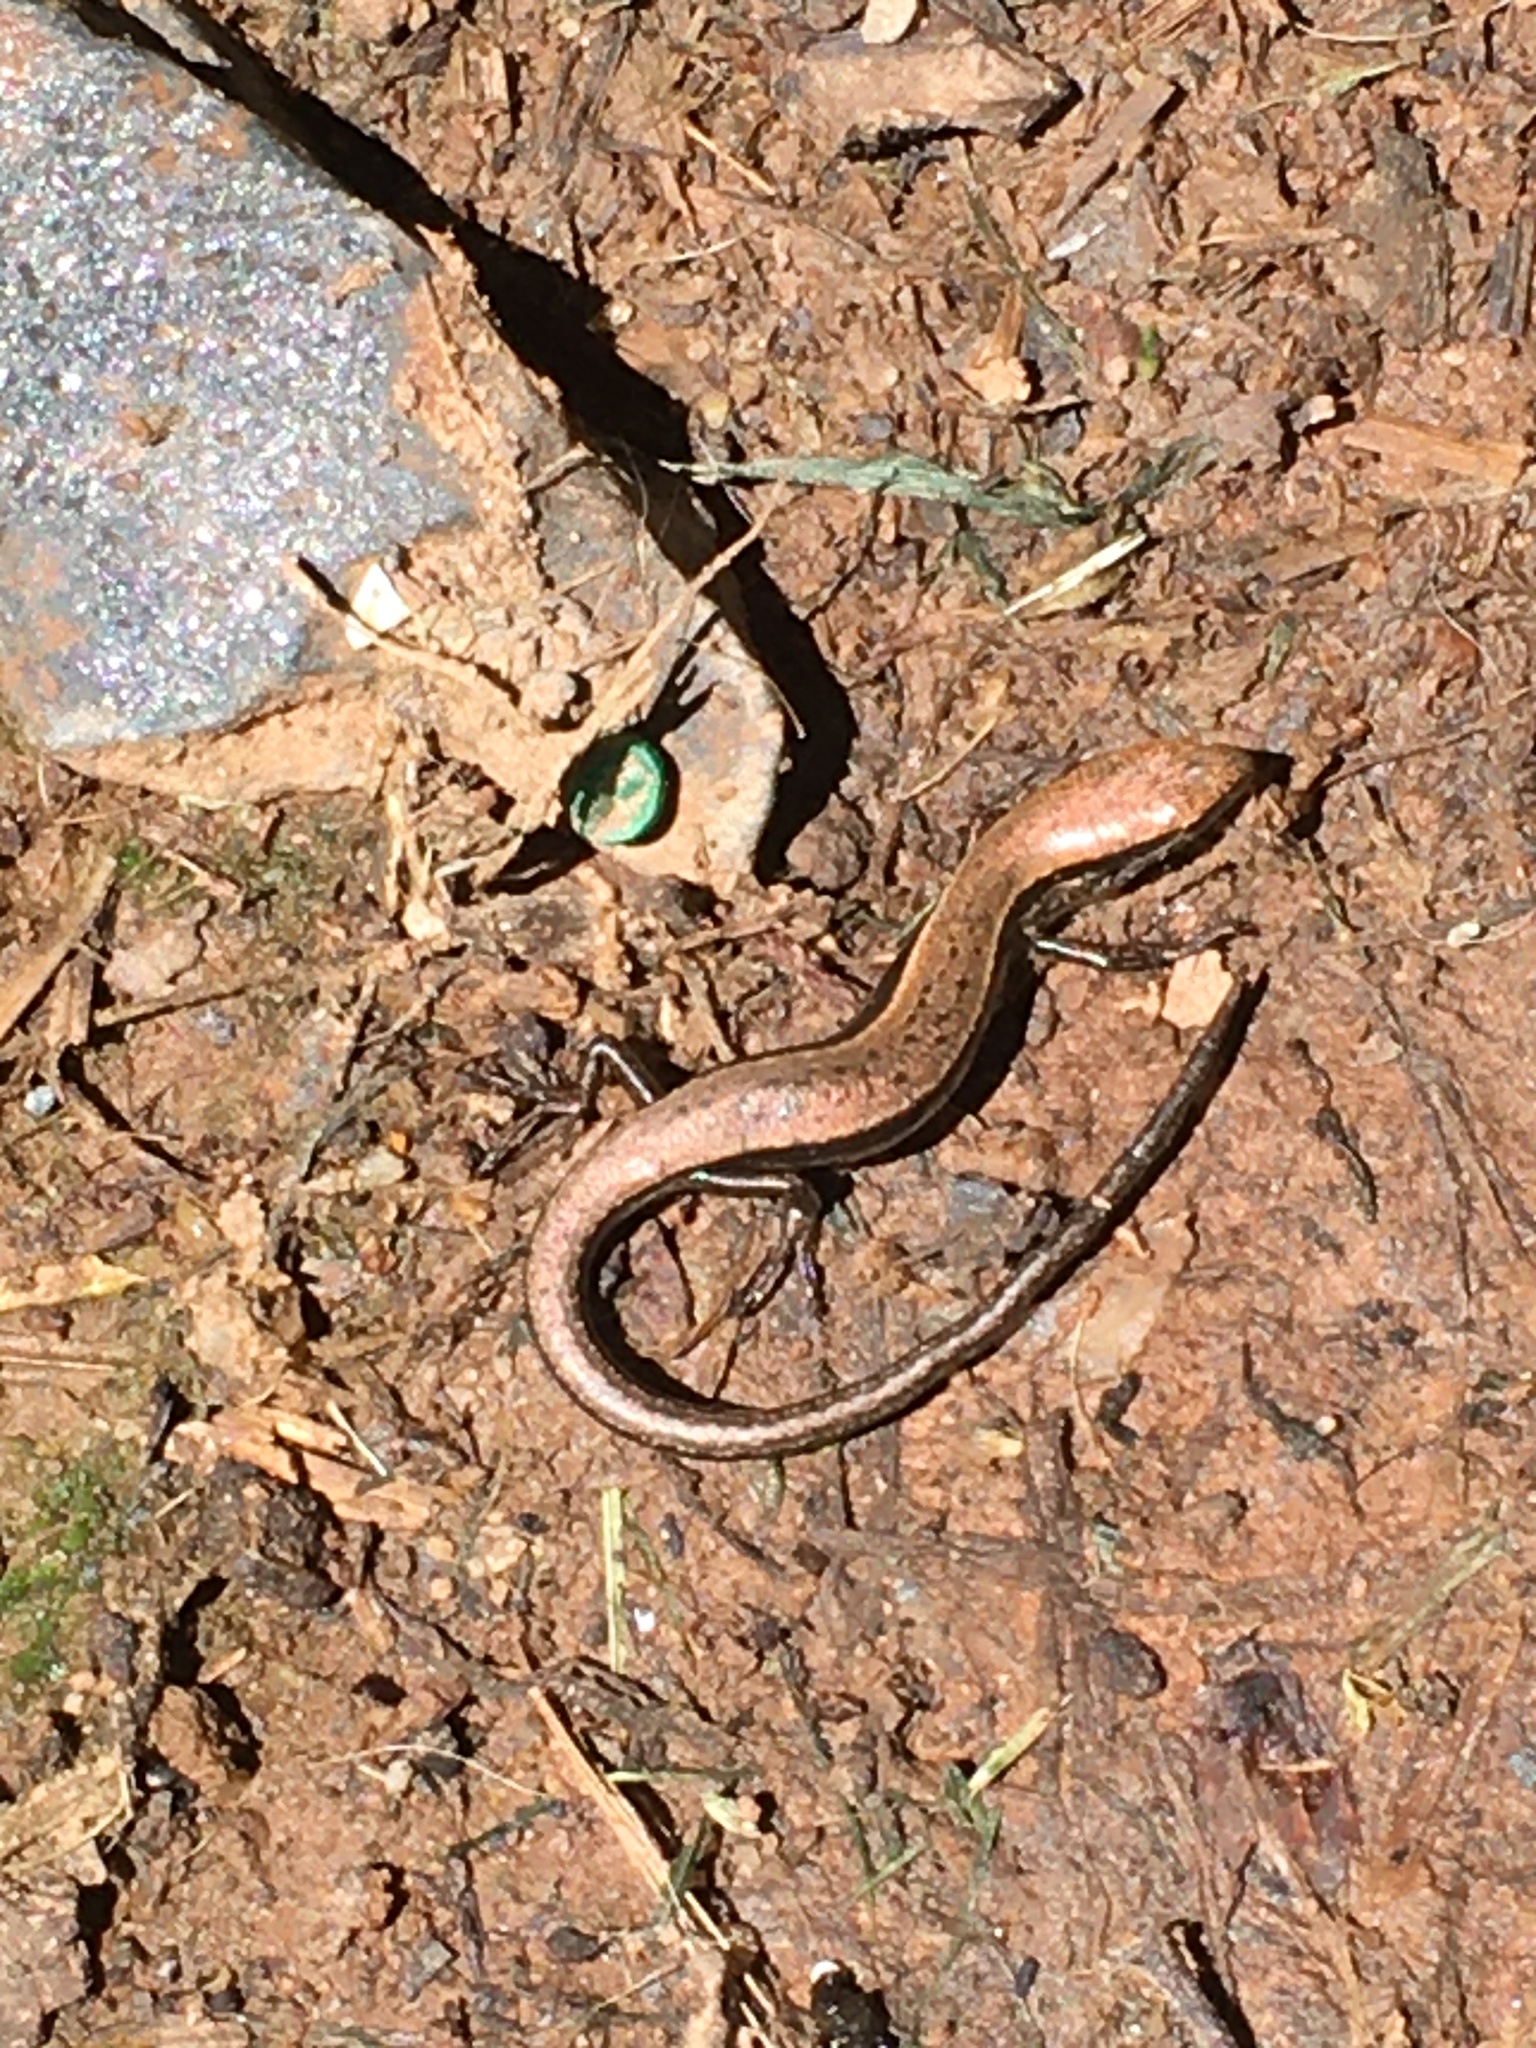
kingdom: Animalia
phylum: Chordata
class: Squamata
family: Scincidae
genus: Scincella
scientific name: Scincella lateralis
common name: Ground skink
